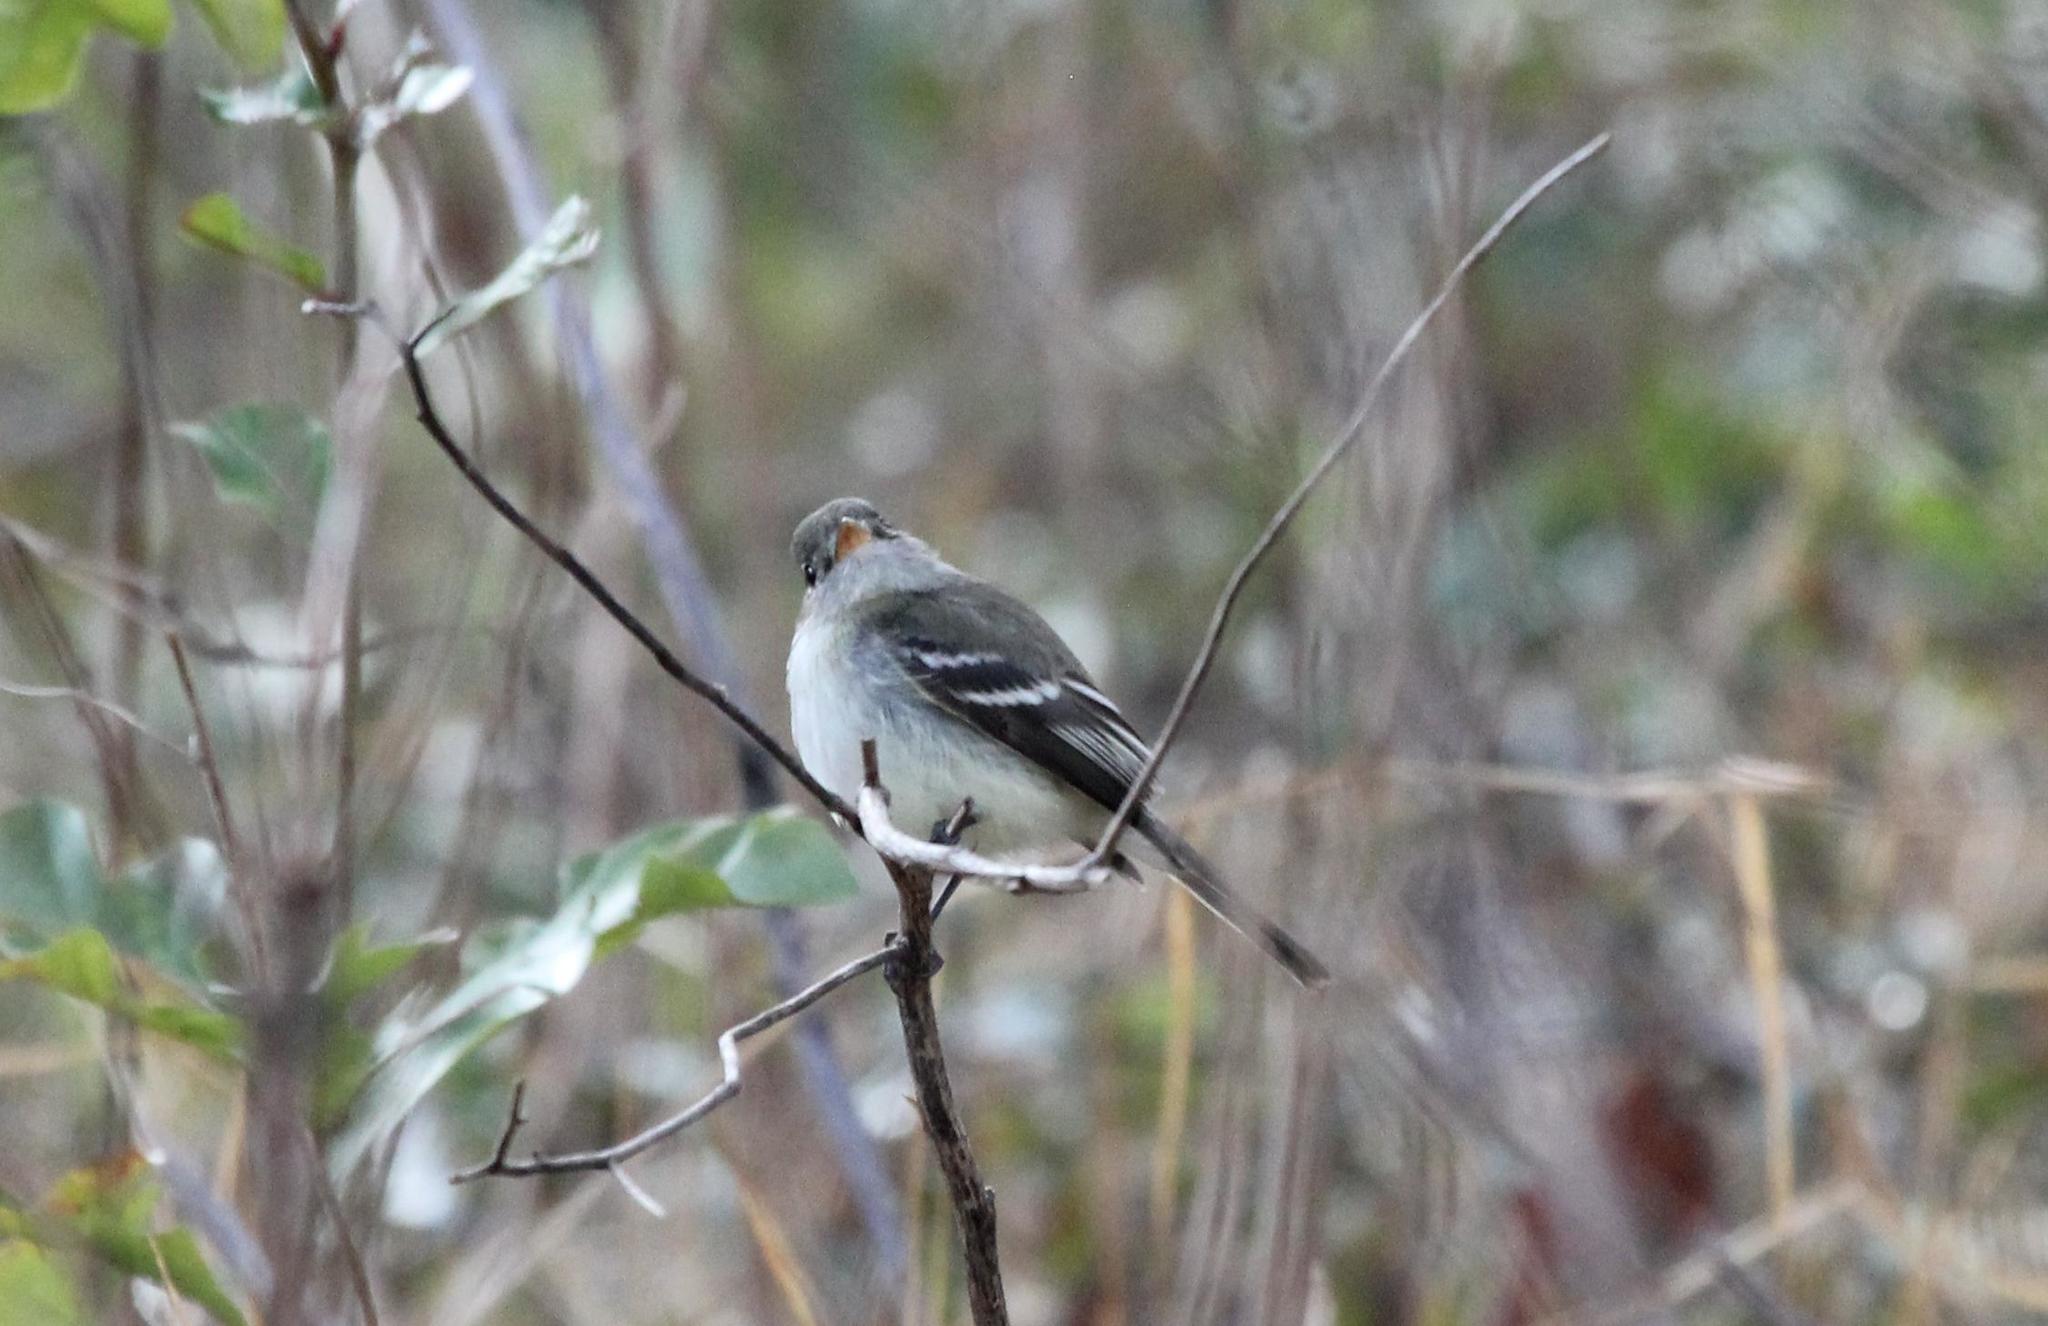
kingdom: Animalia
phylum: Chordata
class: Aves
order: Passeriformes
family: Tyrannidae
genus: Empidonax
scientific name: Empidonax minimus
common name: Least flycatcher
